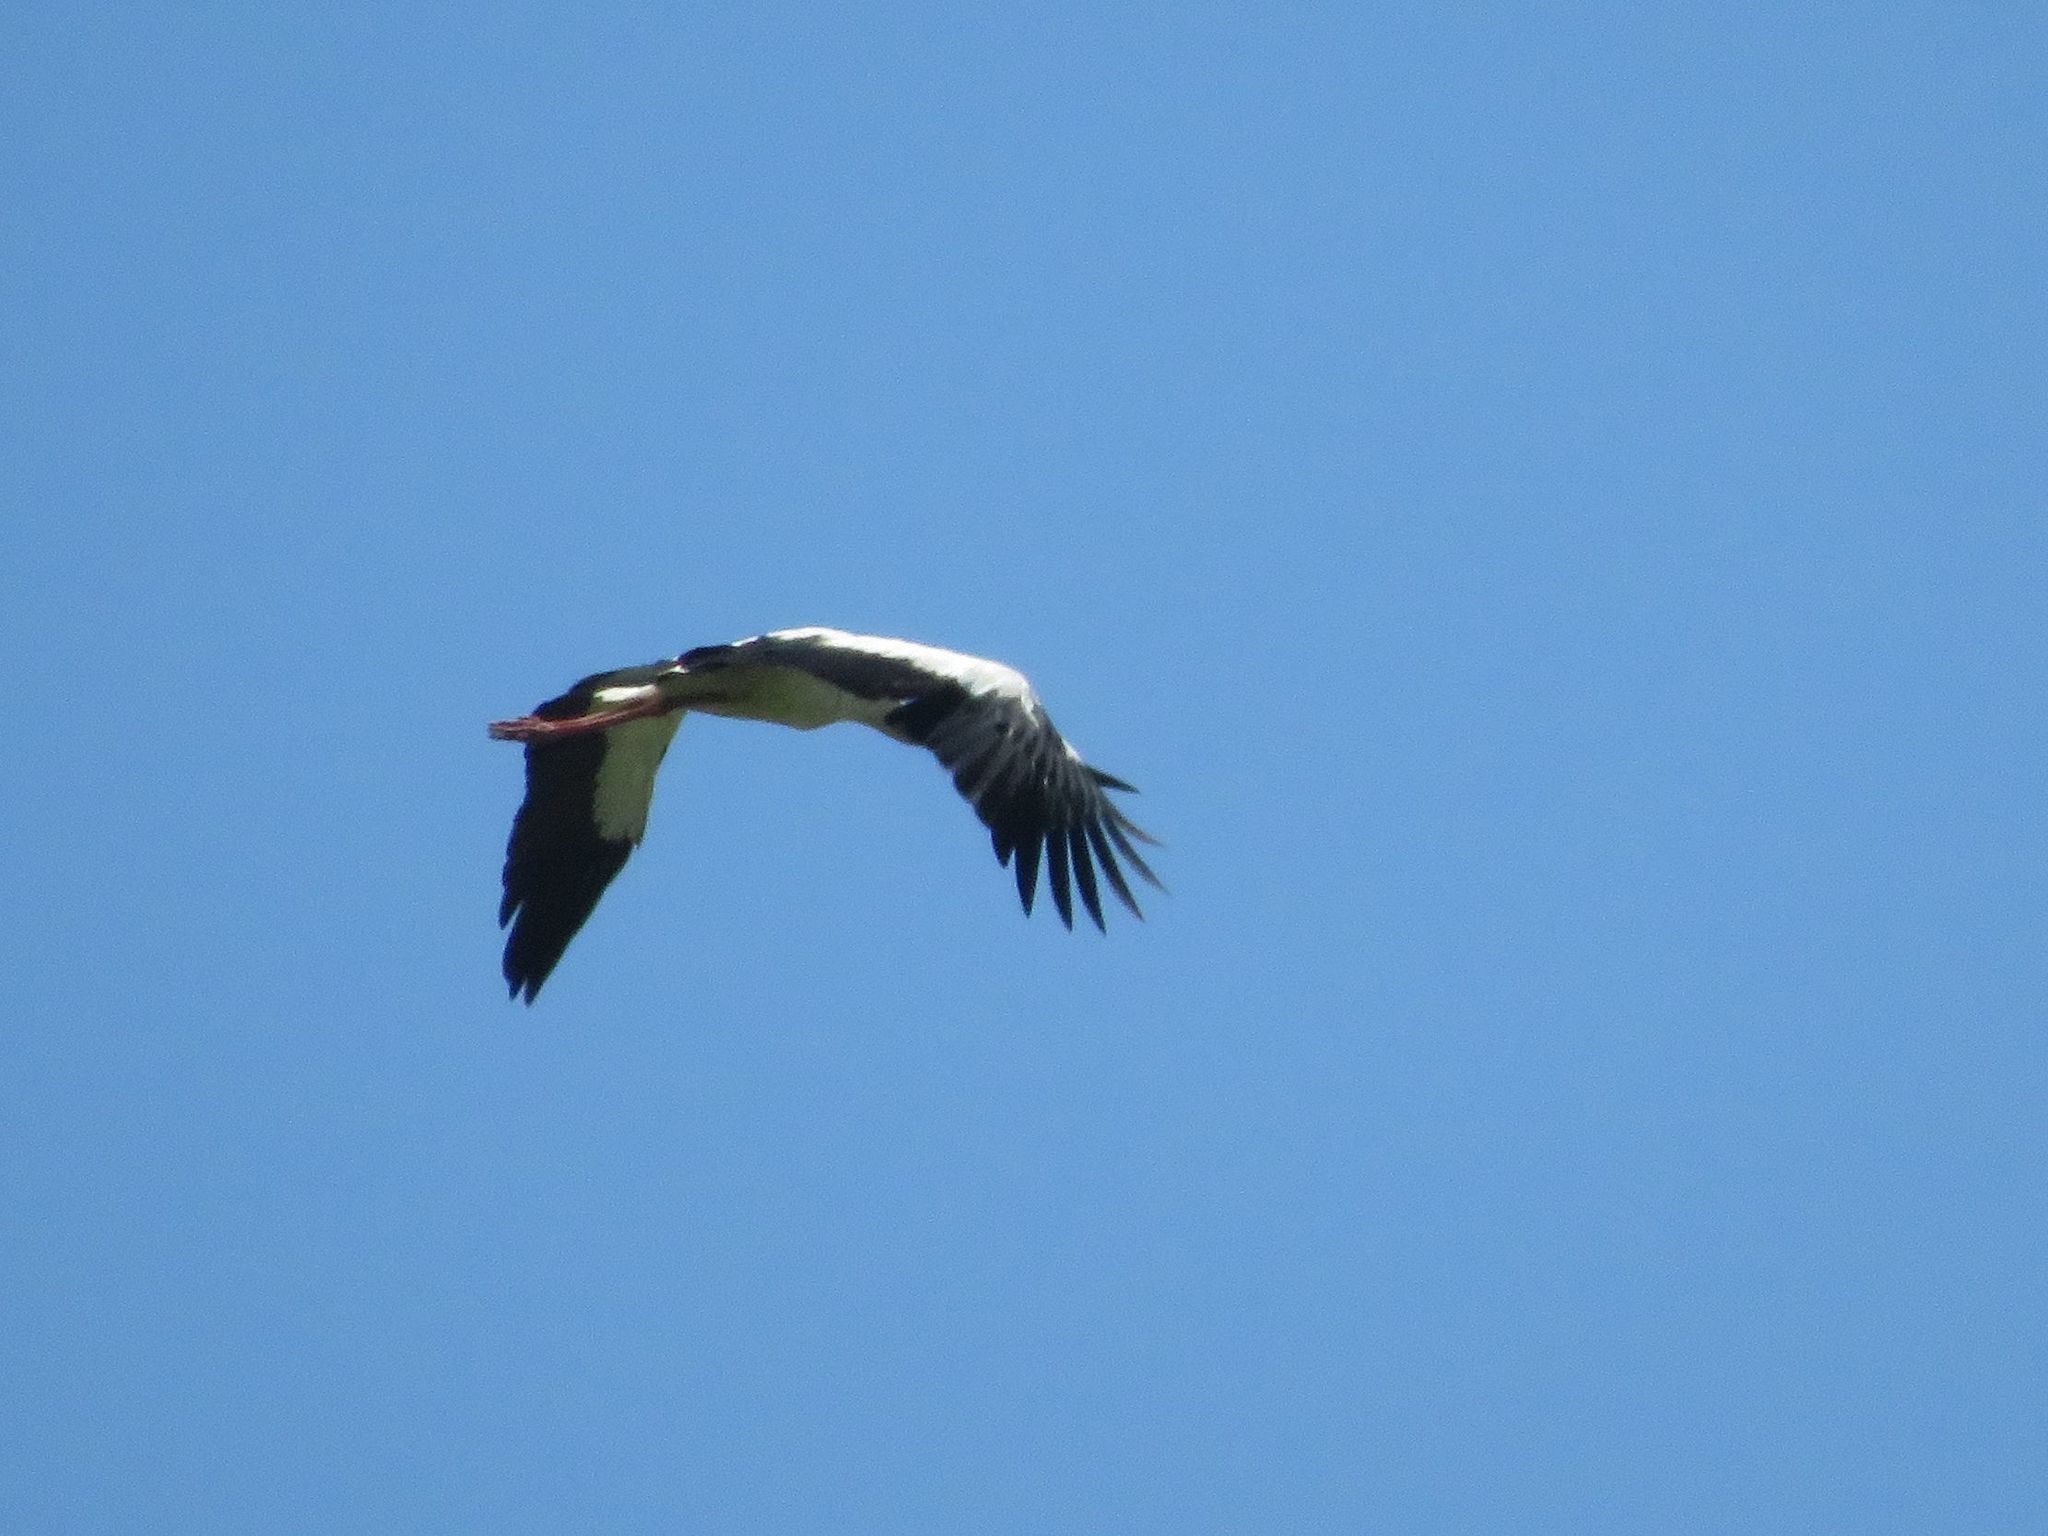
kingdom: Animalia
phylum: Chordata
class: Aves
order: Ciconiiformes
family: Ciconiidae
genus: Ciconia
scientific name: Ciconia maguari
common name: Maguari stork
